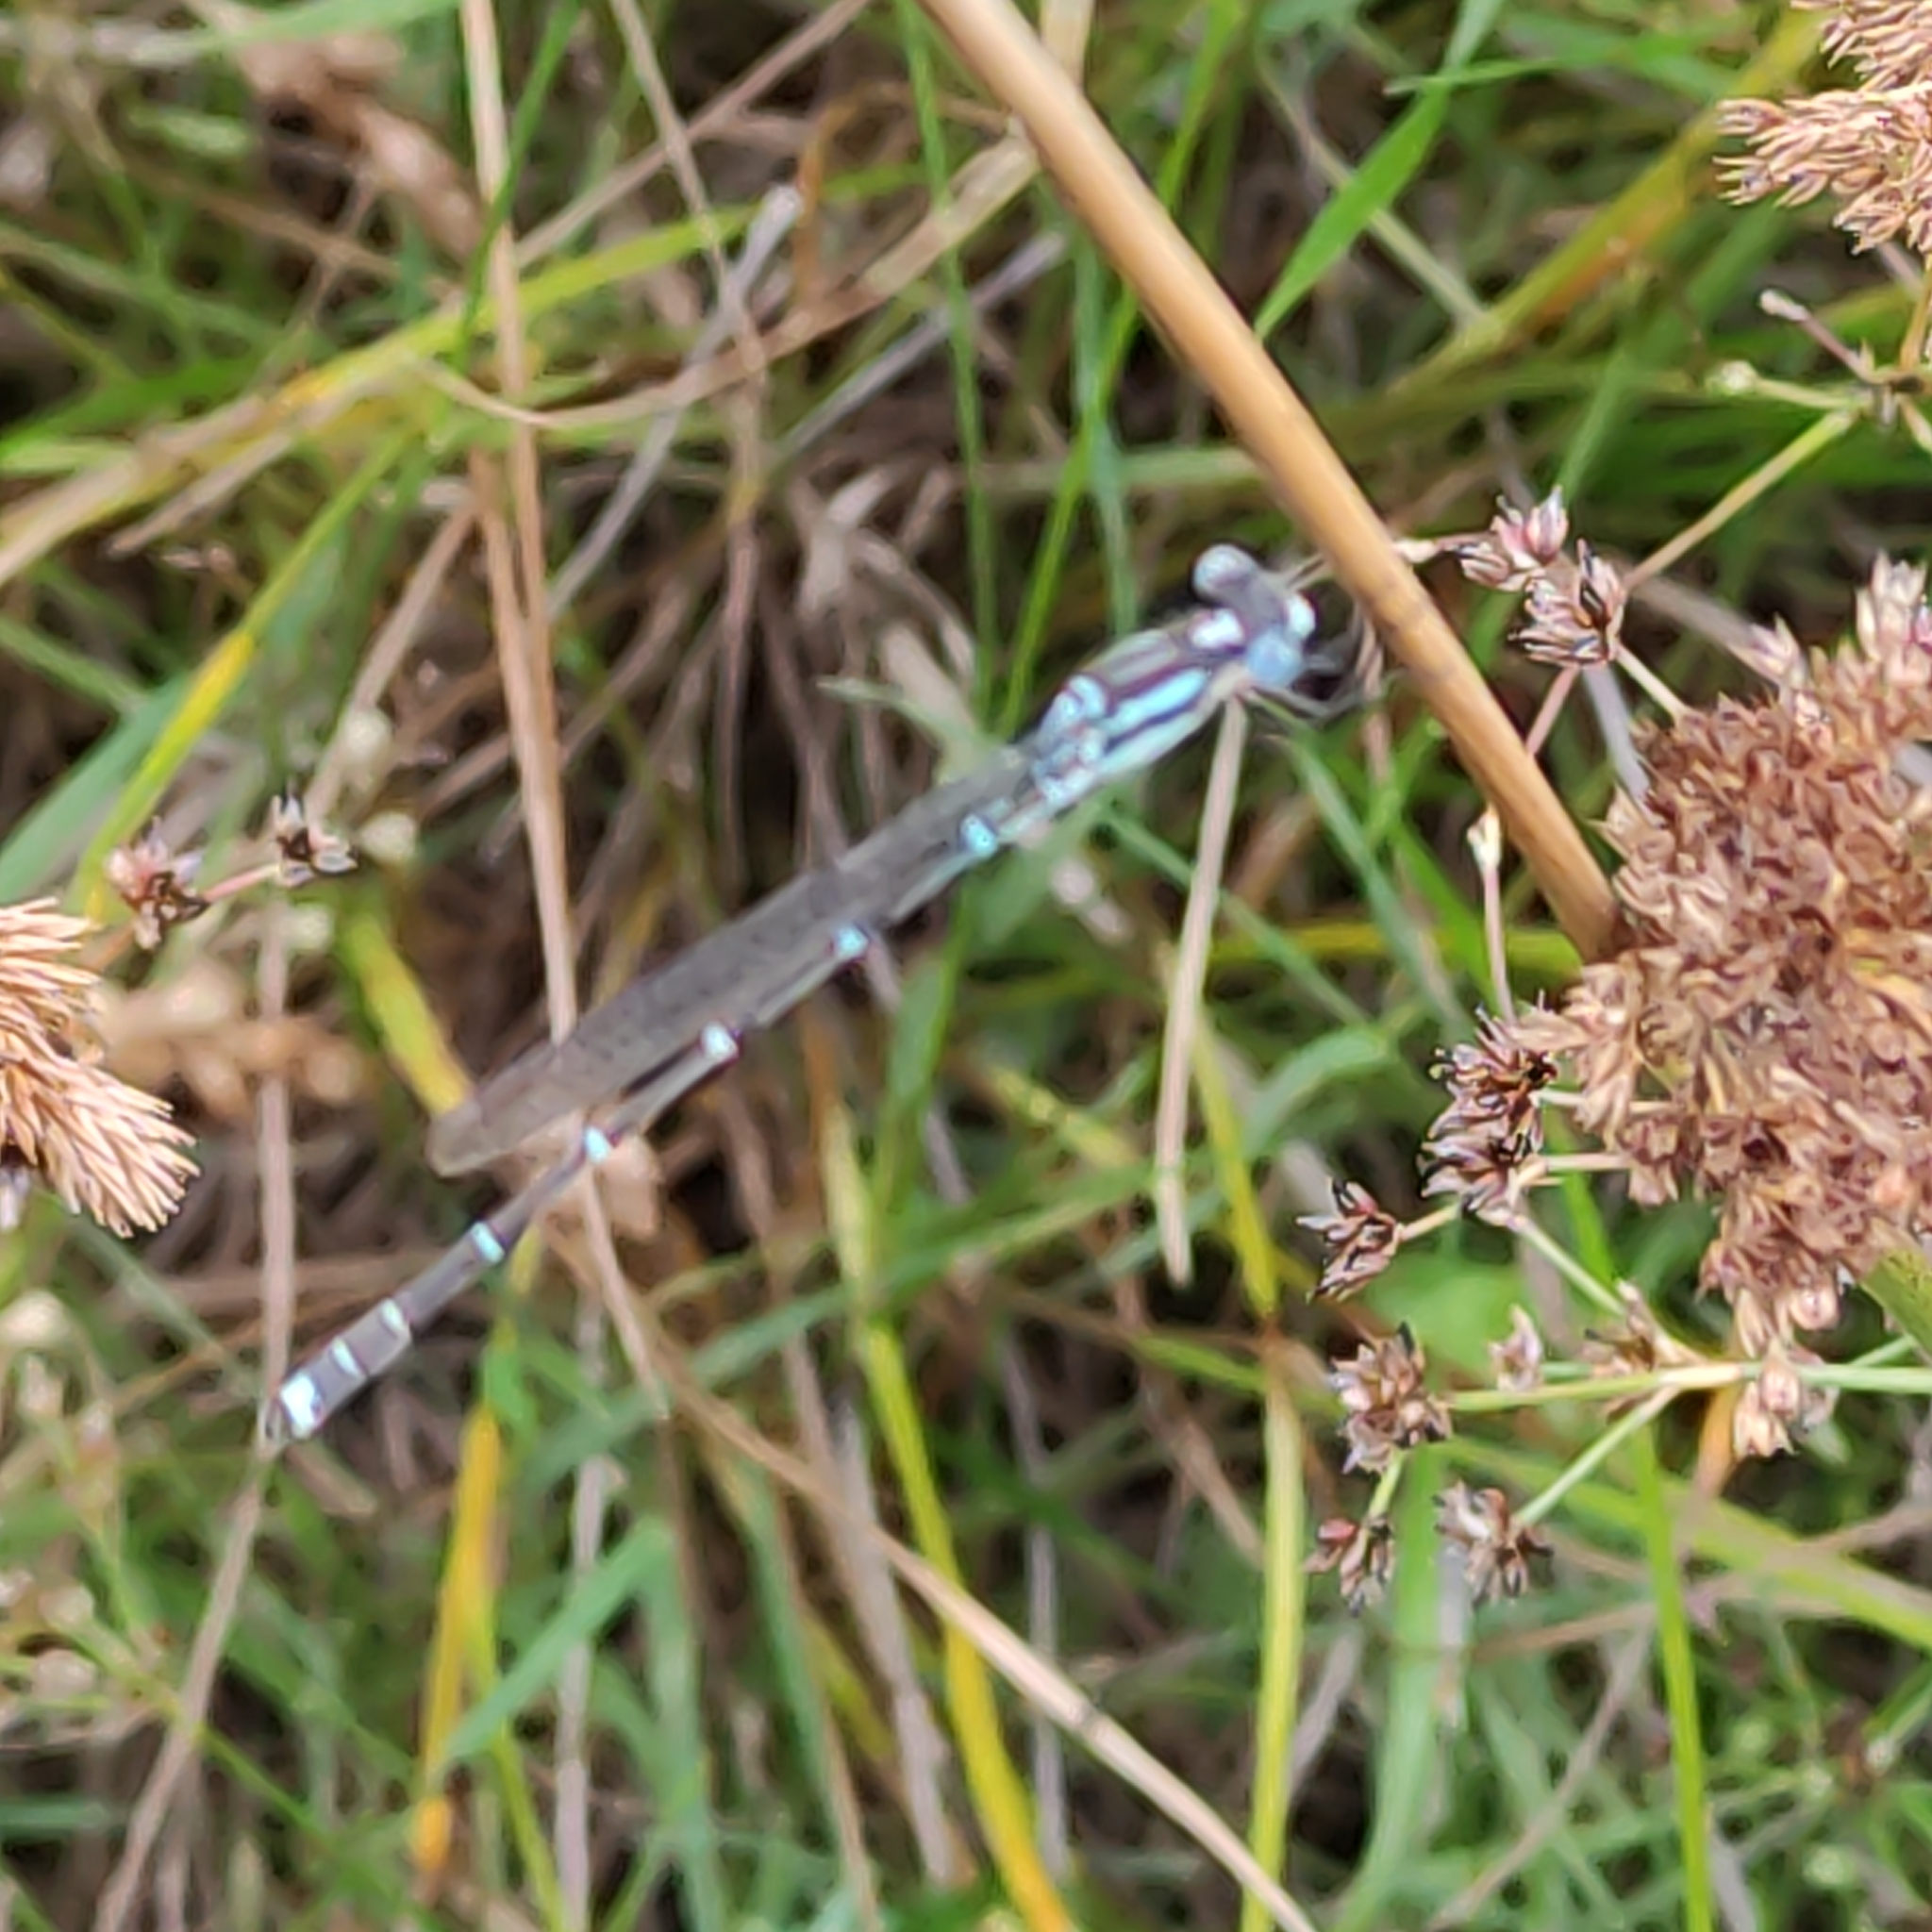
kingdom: Animalia
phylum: Arthropoda
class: Insecta
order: Odonata
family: Lestidae
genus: Austrolestes
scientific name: Austrolestes colensonis
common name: Blue damselfly
